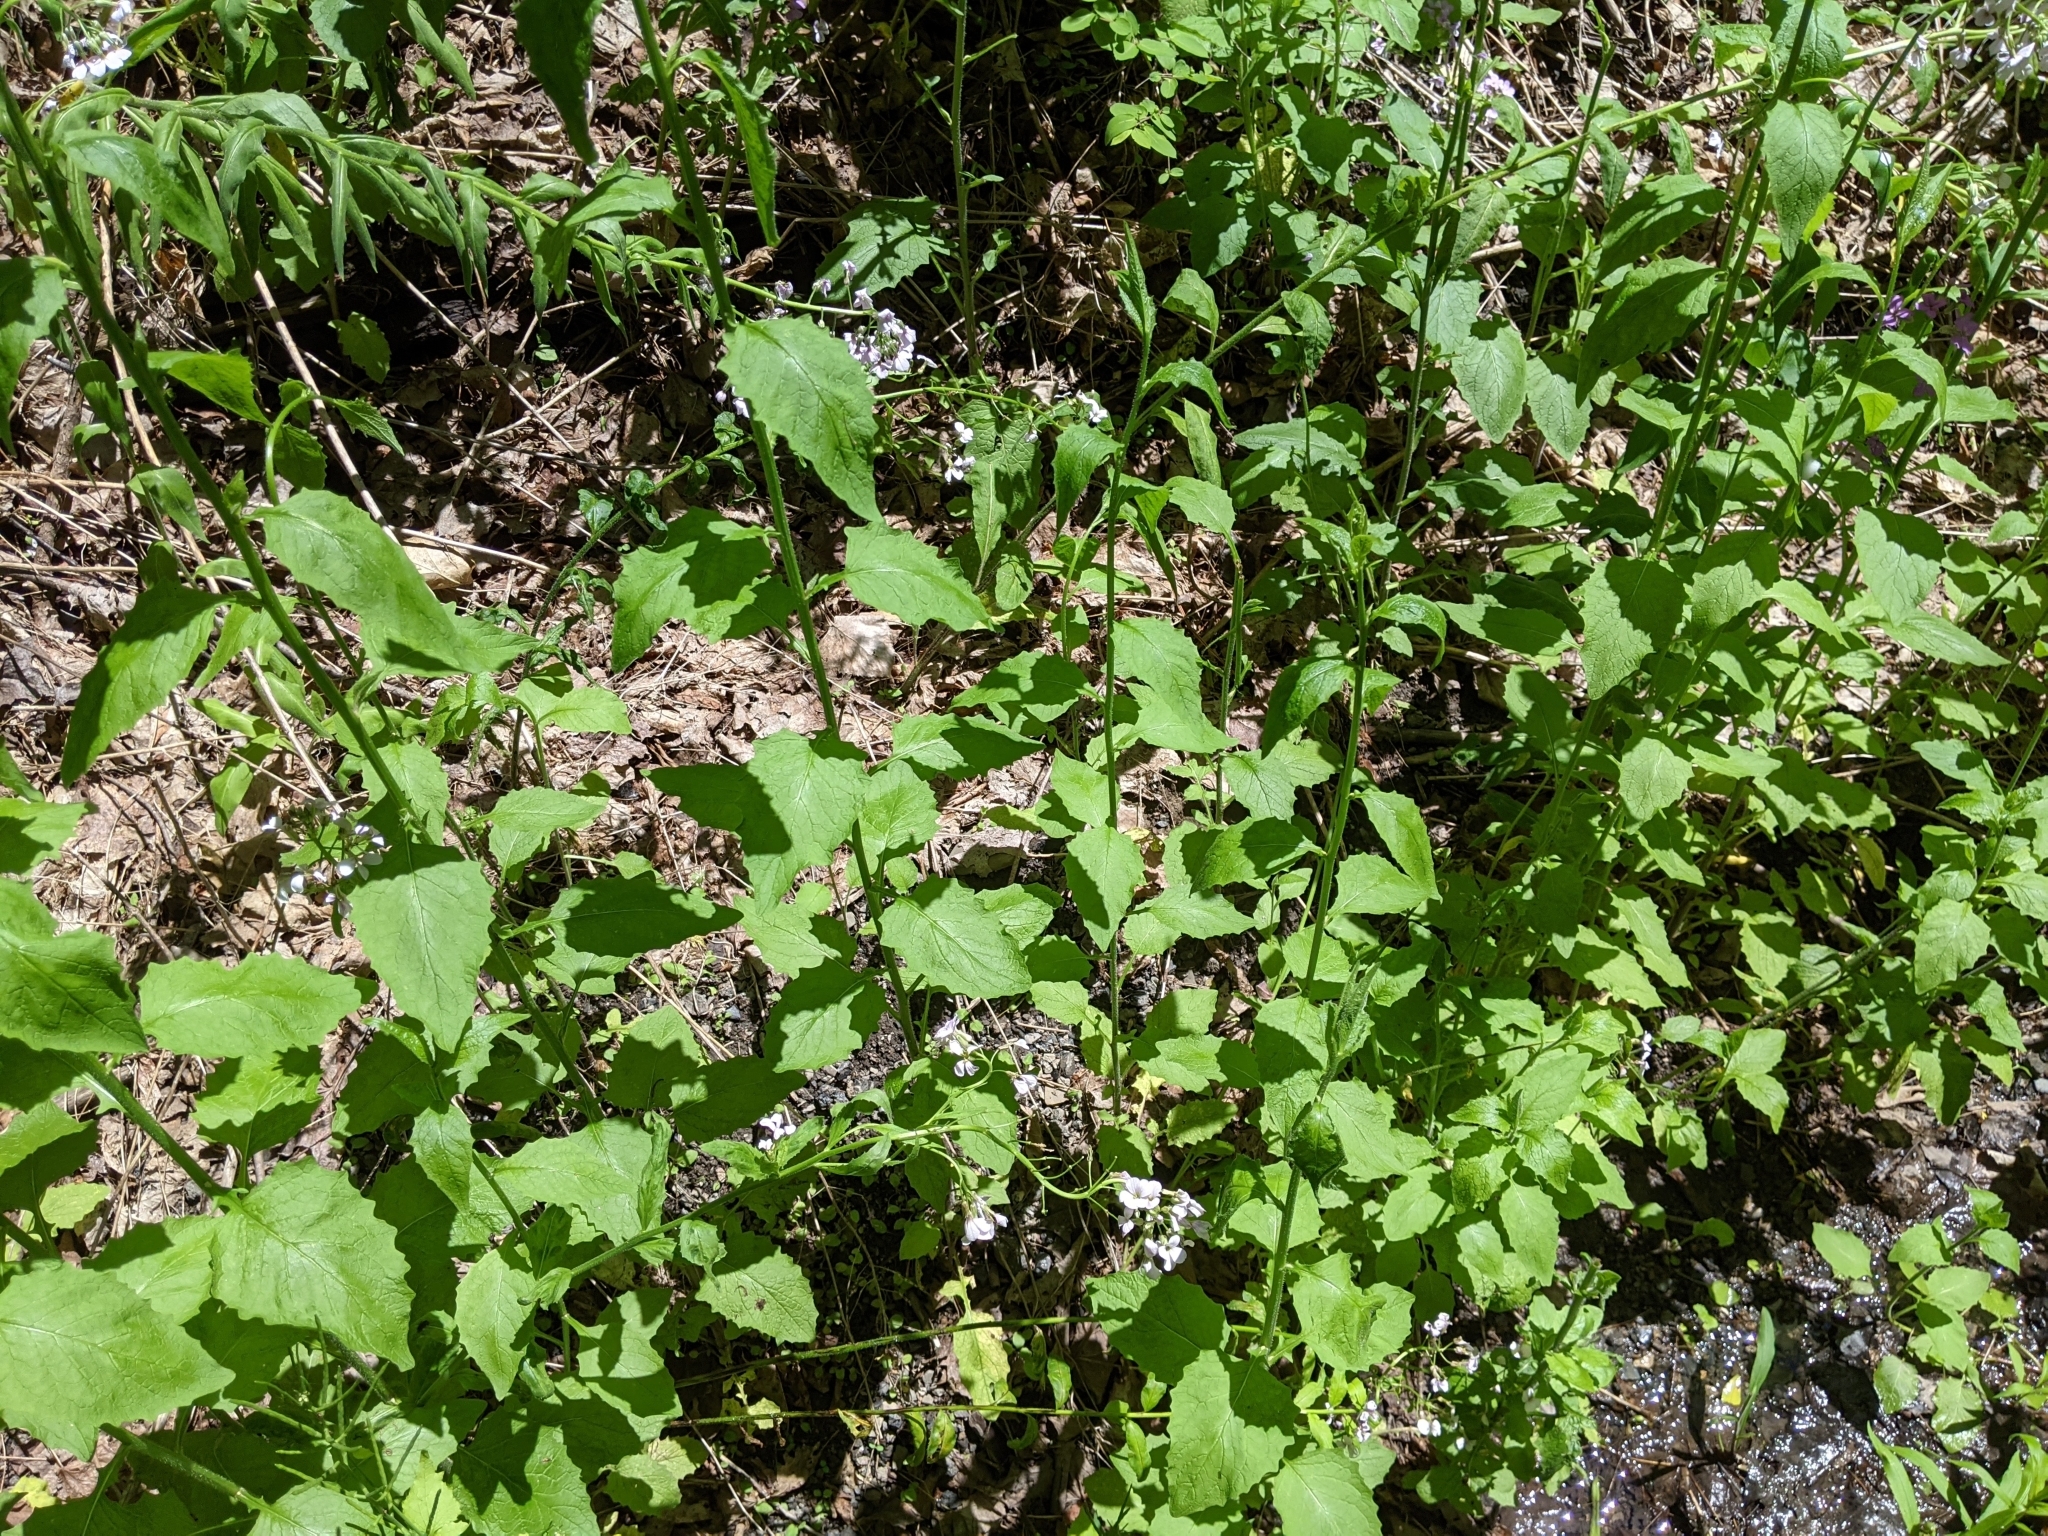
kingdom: Animalia
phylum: Arthropoda
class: Insecta
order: Coleoptera
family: Buprestidae
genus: Agrilus
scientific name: Agrilus cyanescens
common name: Bluish borer beetle
